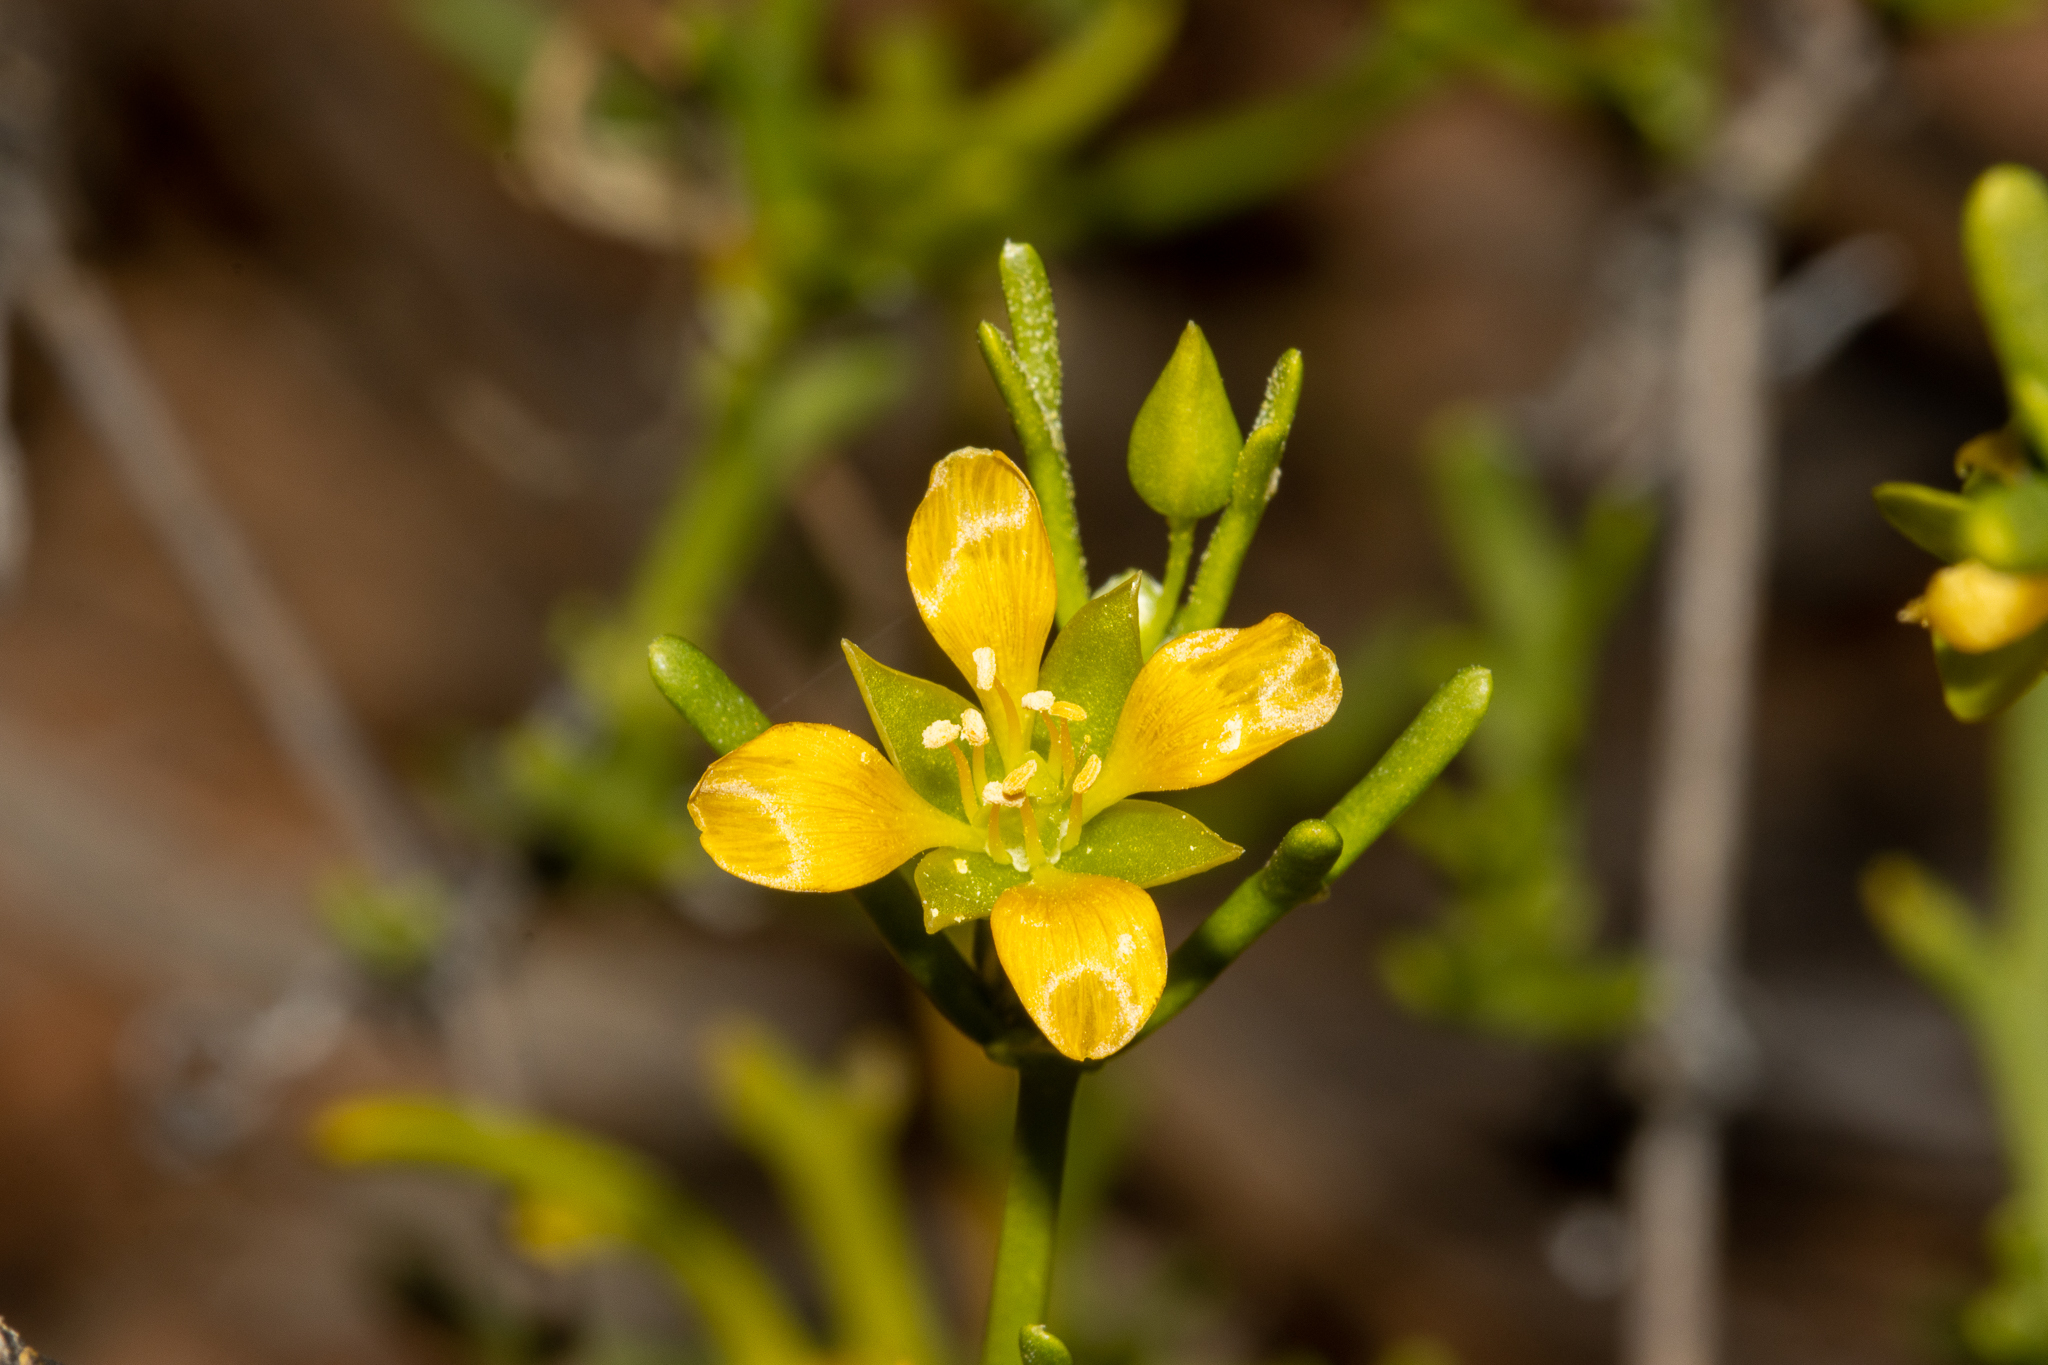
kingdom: Plantae
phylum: Tracheophyta
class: Magnoliopsida
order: Zygophyllales
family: Zygophyllaceae
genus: Roepera
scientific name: Roepera aurantiaca
